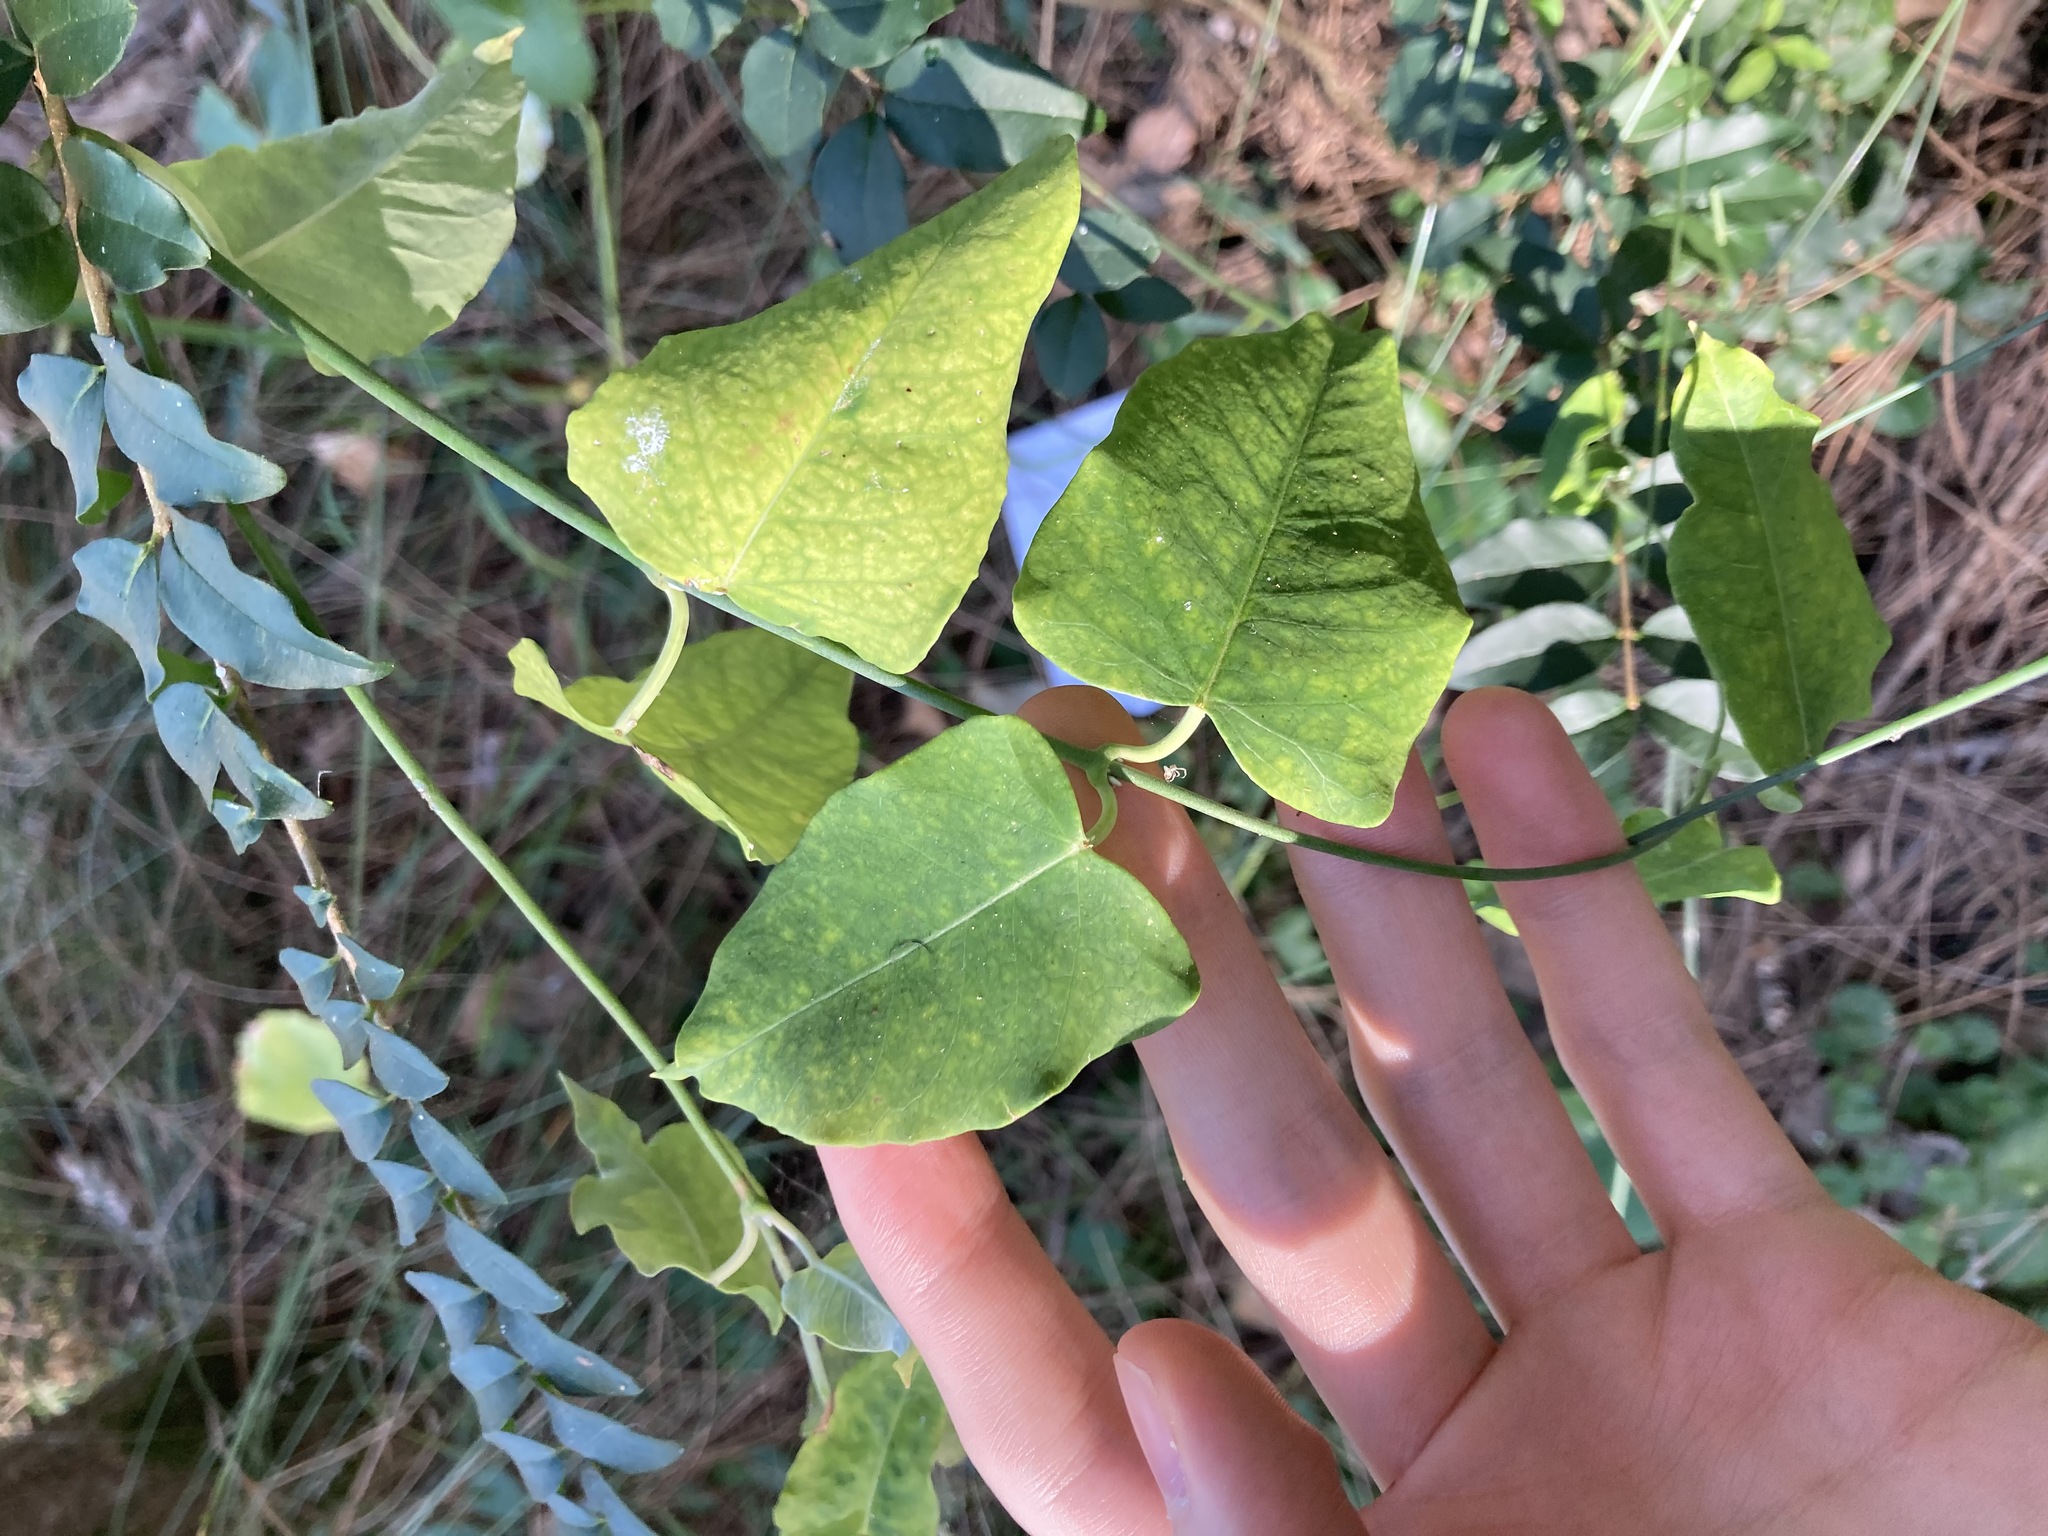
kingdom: Plantae
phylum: Tracheophyta
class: Magnoliopsida
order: Gentianales
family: Apocynaceae
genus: Araujia
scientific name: Araujia sericifera
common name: White bladderflower
